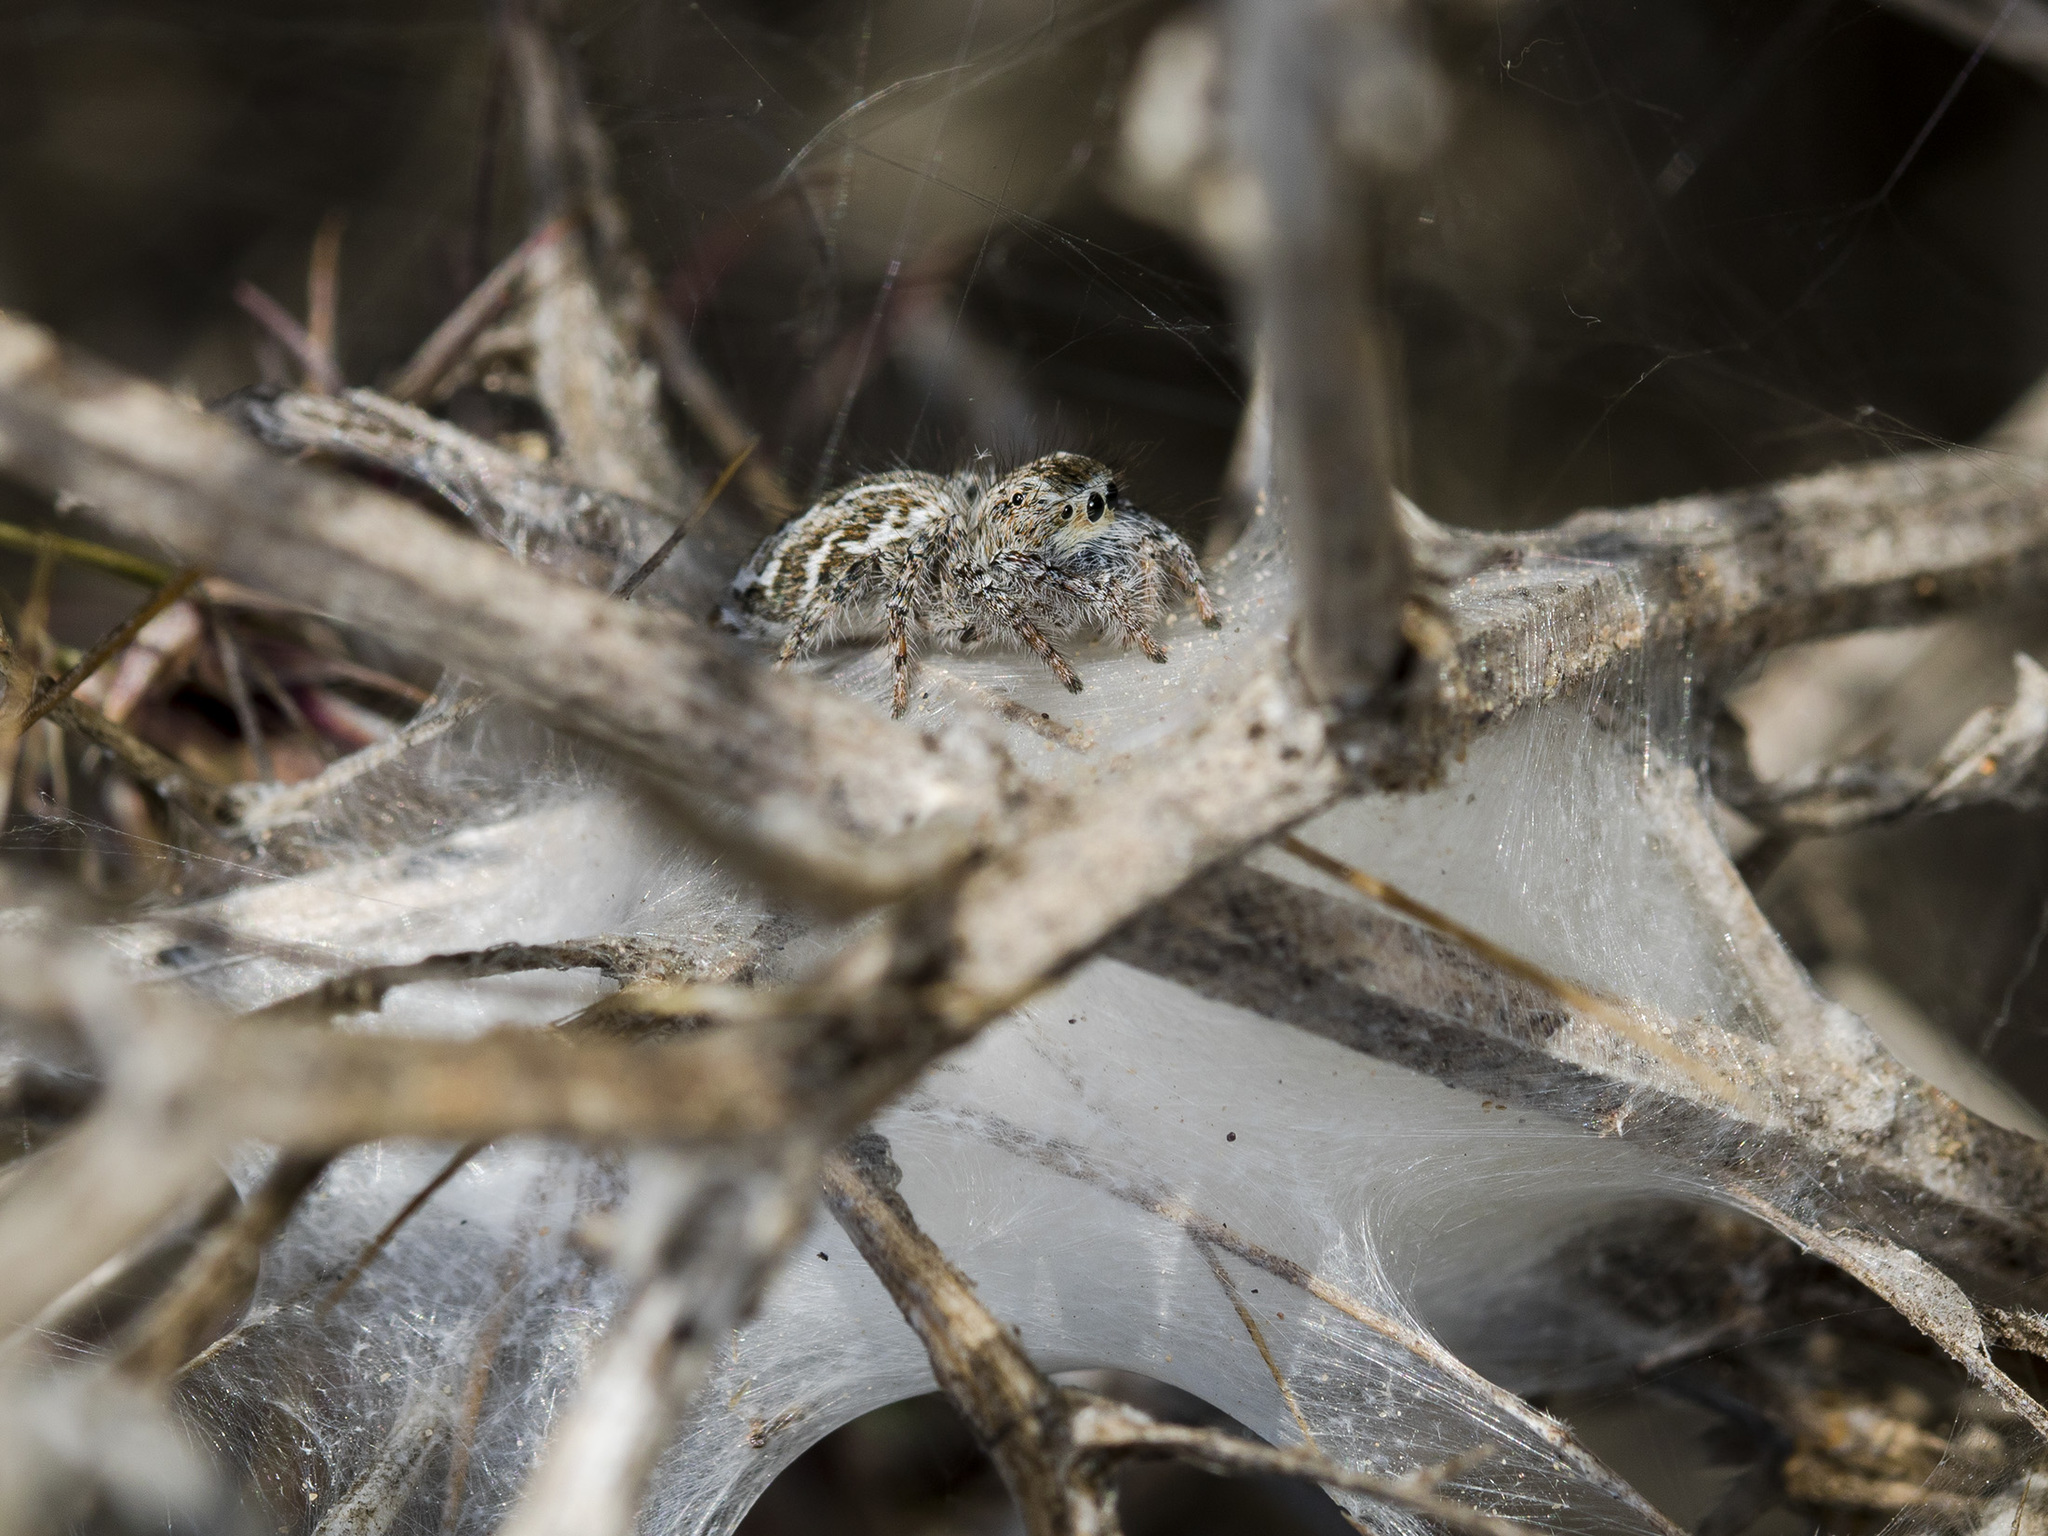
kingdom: Animalia
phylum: Arthropoda
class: Arachnida
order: Araneae
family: Salticidae
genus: Mogrus
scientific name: Mogrus larisae
